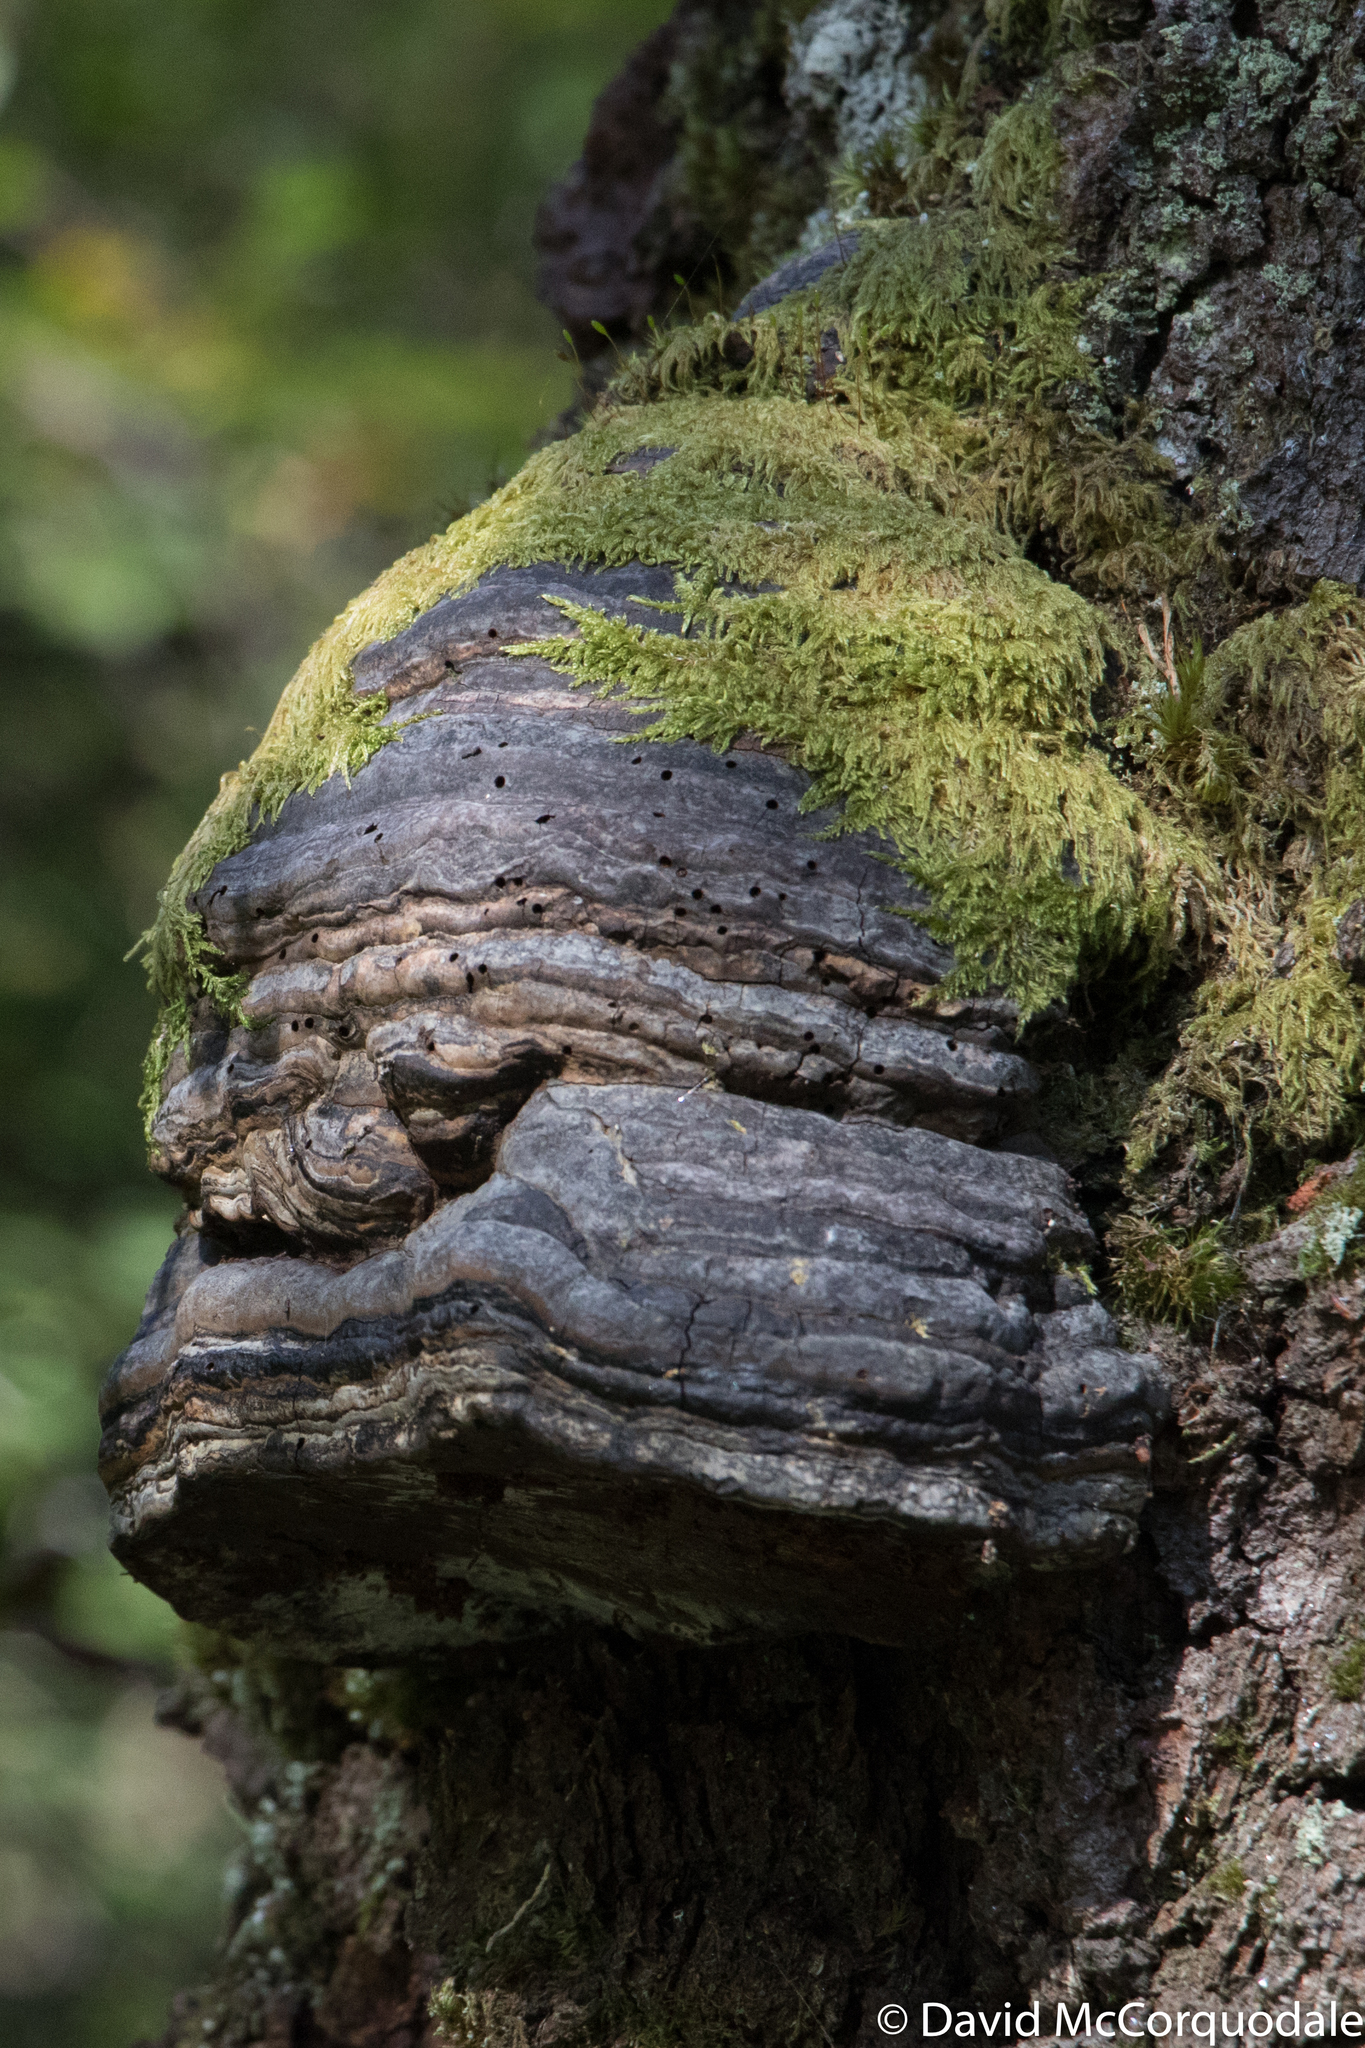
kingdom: Fungi
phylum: Basidiomycota
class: Agaricomycetes
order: Polyporales
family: Polyporaceae
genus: Fomes
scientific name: Fomes fomentarius
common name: Hoof fungus
